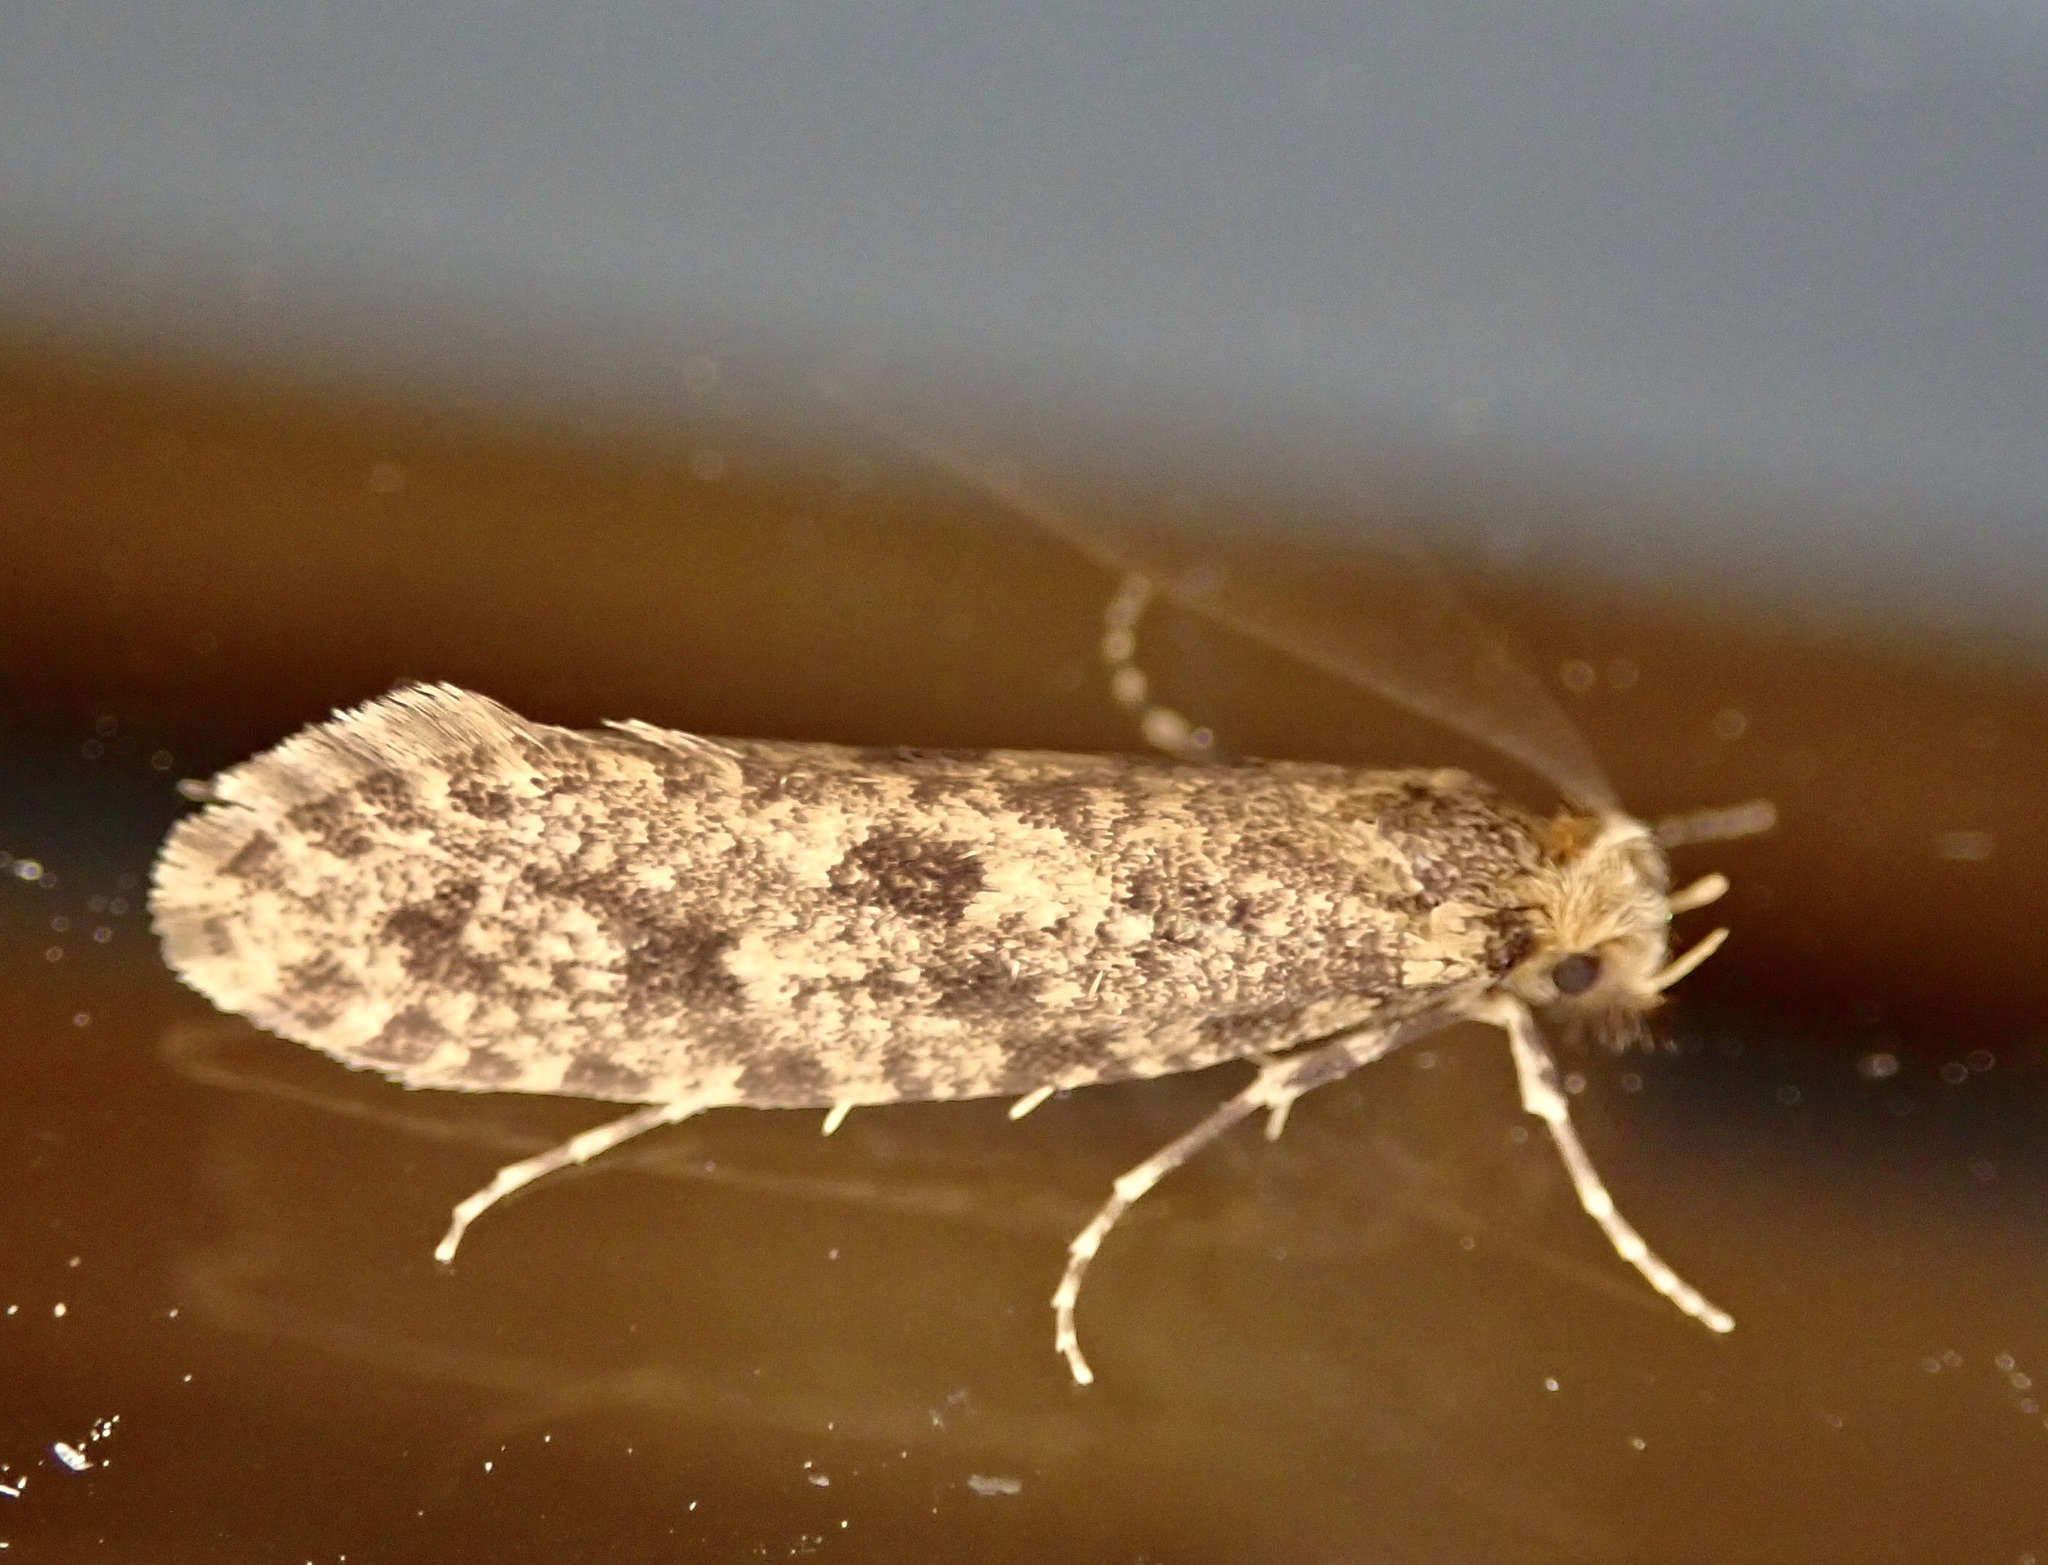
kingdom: Animalia
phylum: Arthropoda
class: Insecta
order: Lepidoptera
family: Tineidae
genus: Archyala
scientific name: Archyala terranea
